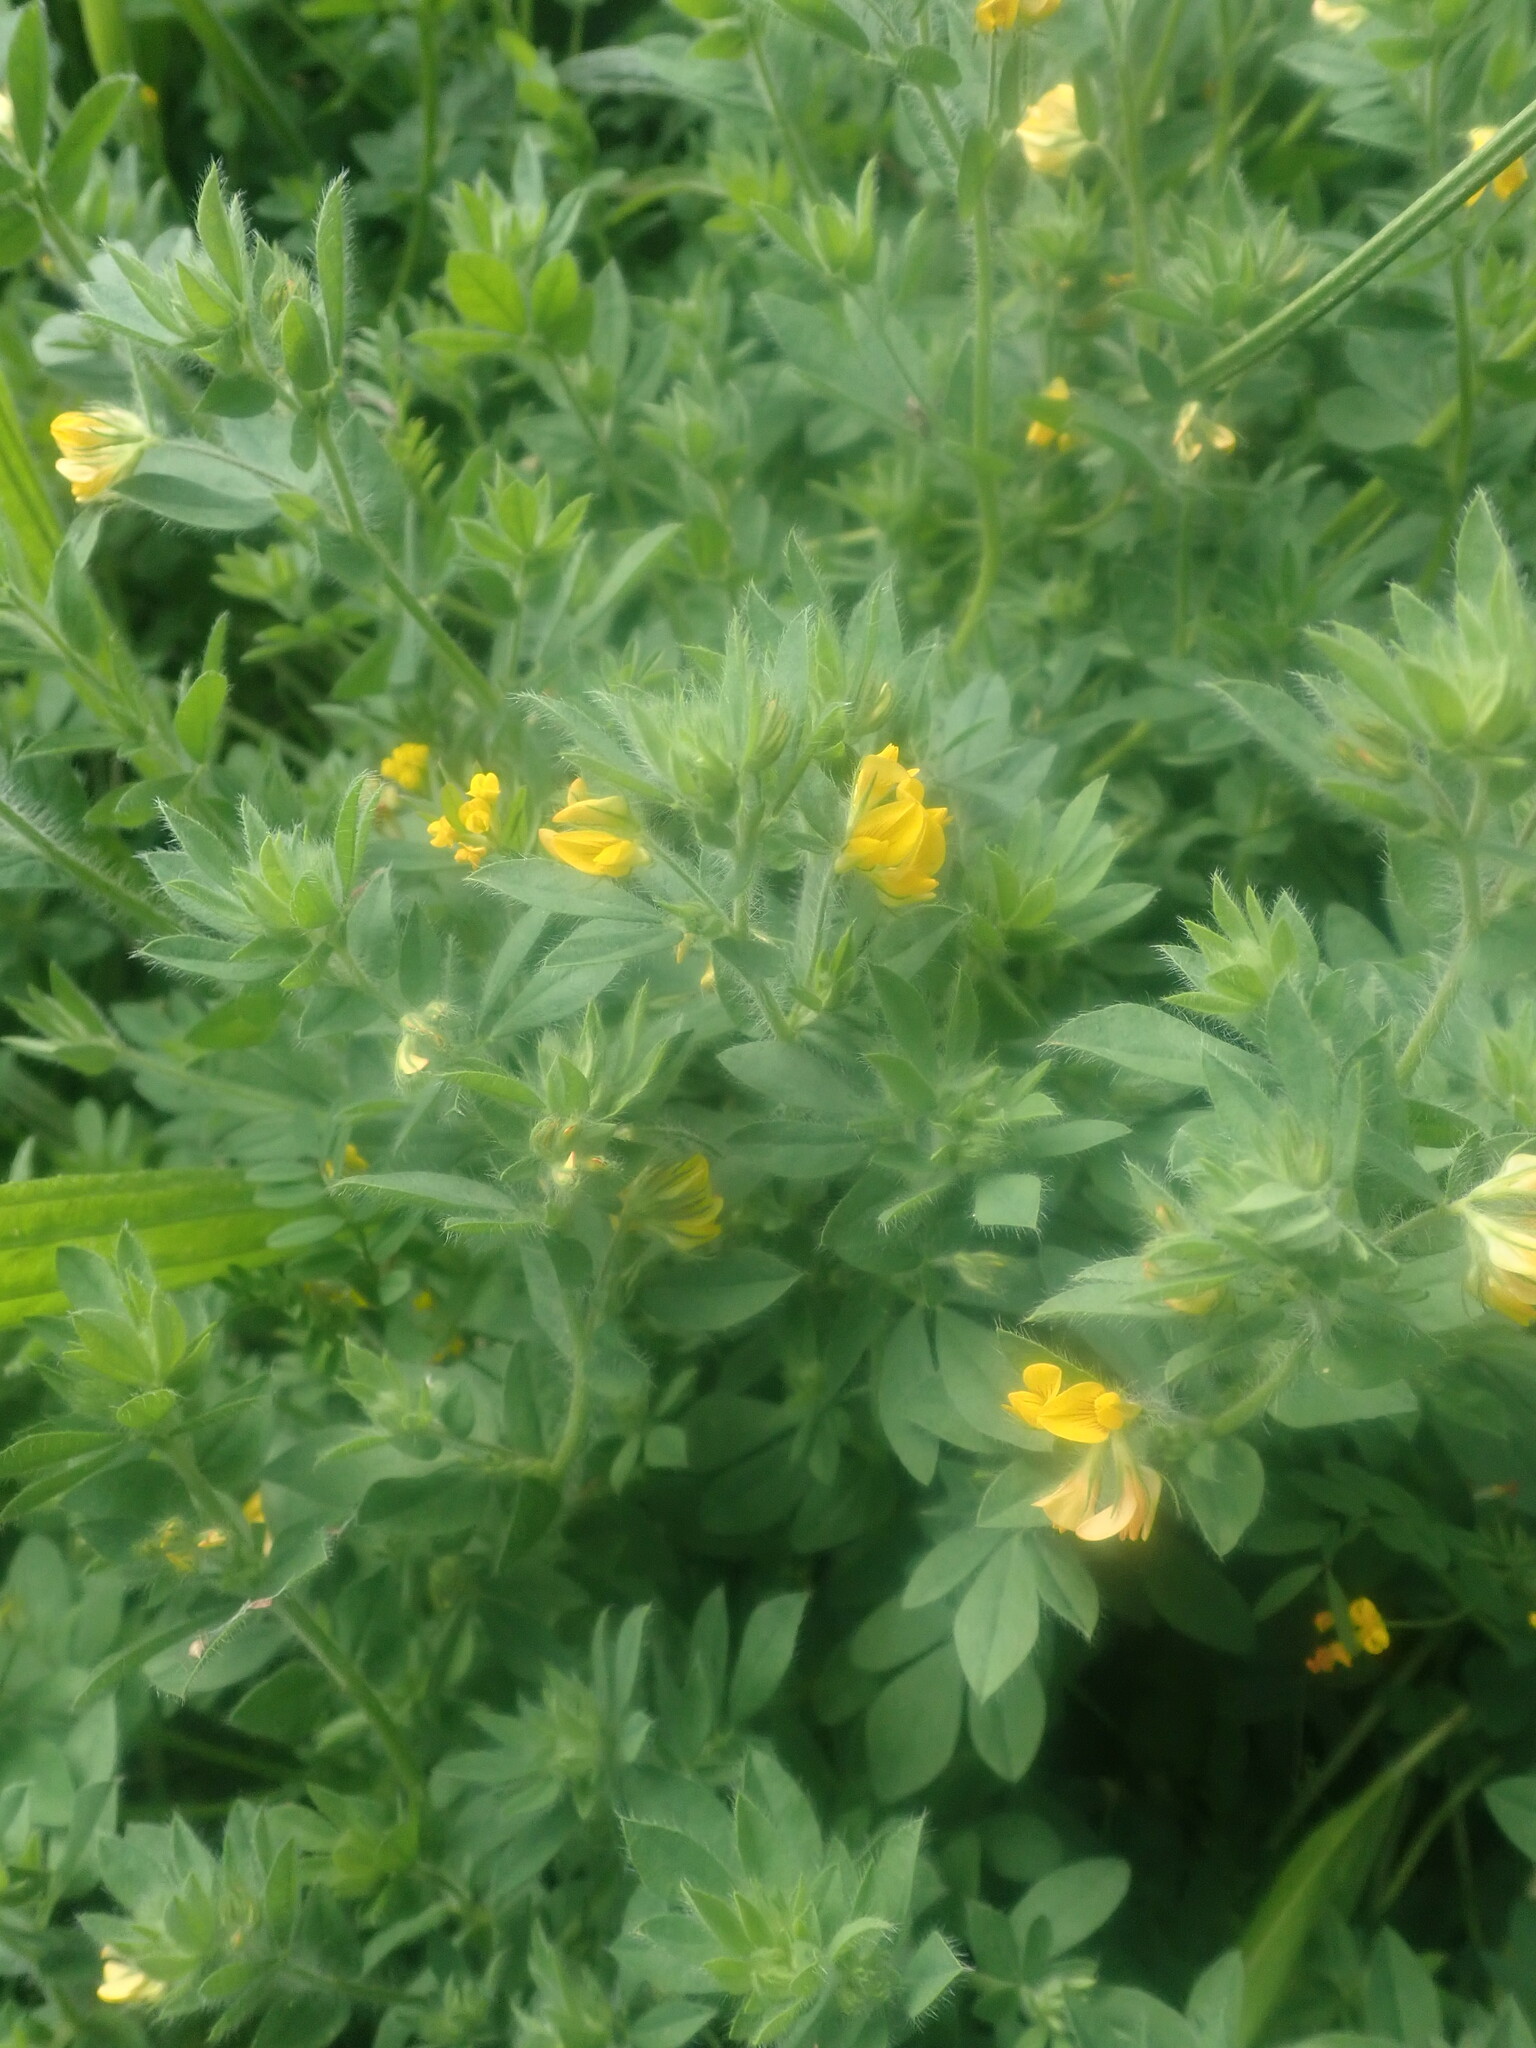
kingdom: Plantae
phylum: Tracheophyta
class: Magnoliopsida
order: Fabales
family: Fabaceae
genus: Lotus
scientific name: Lotus hispidus
